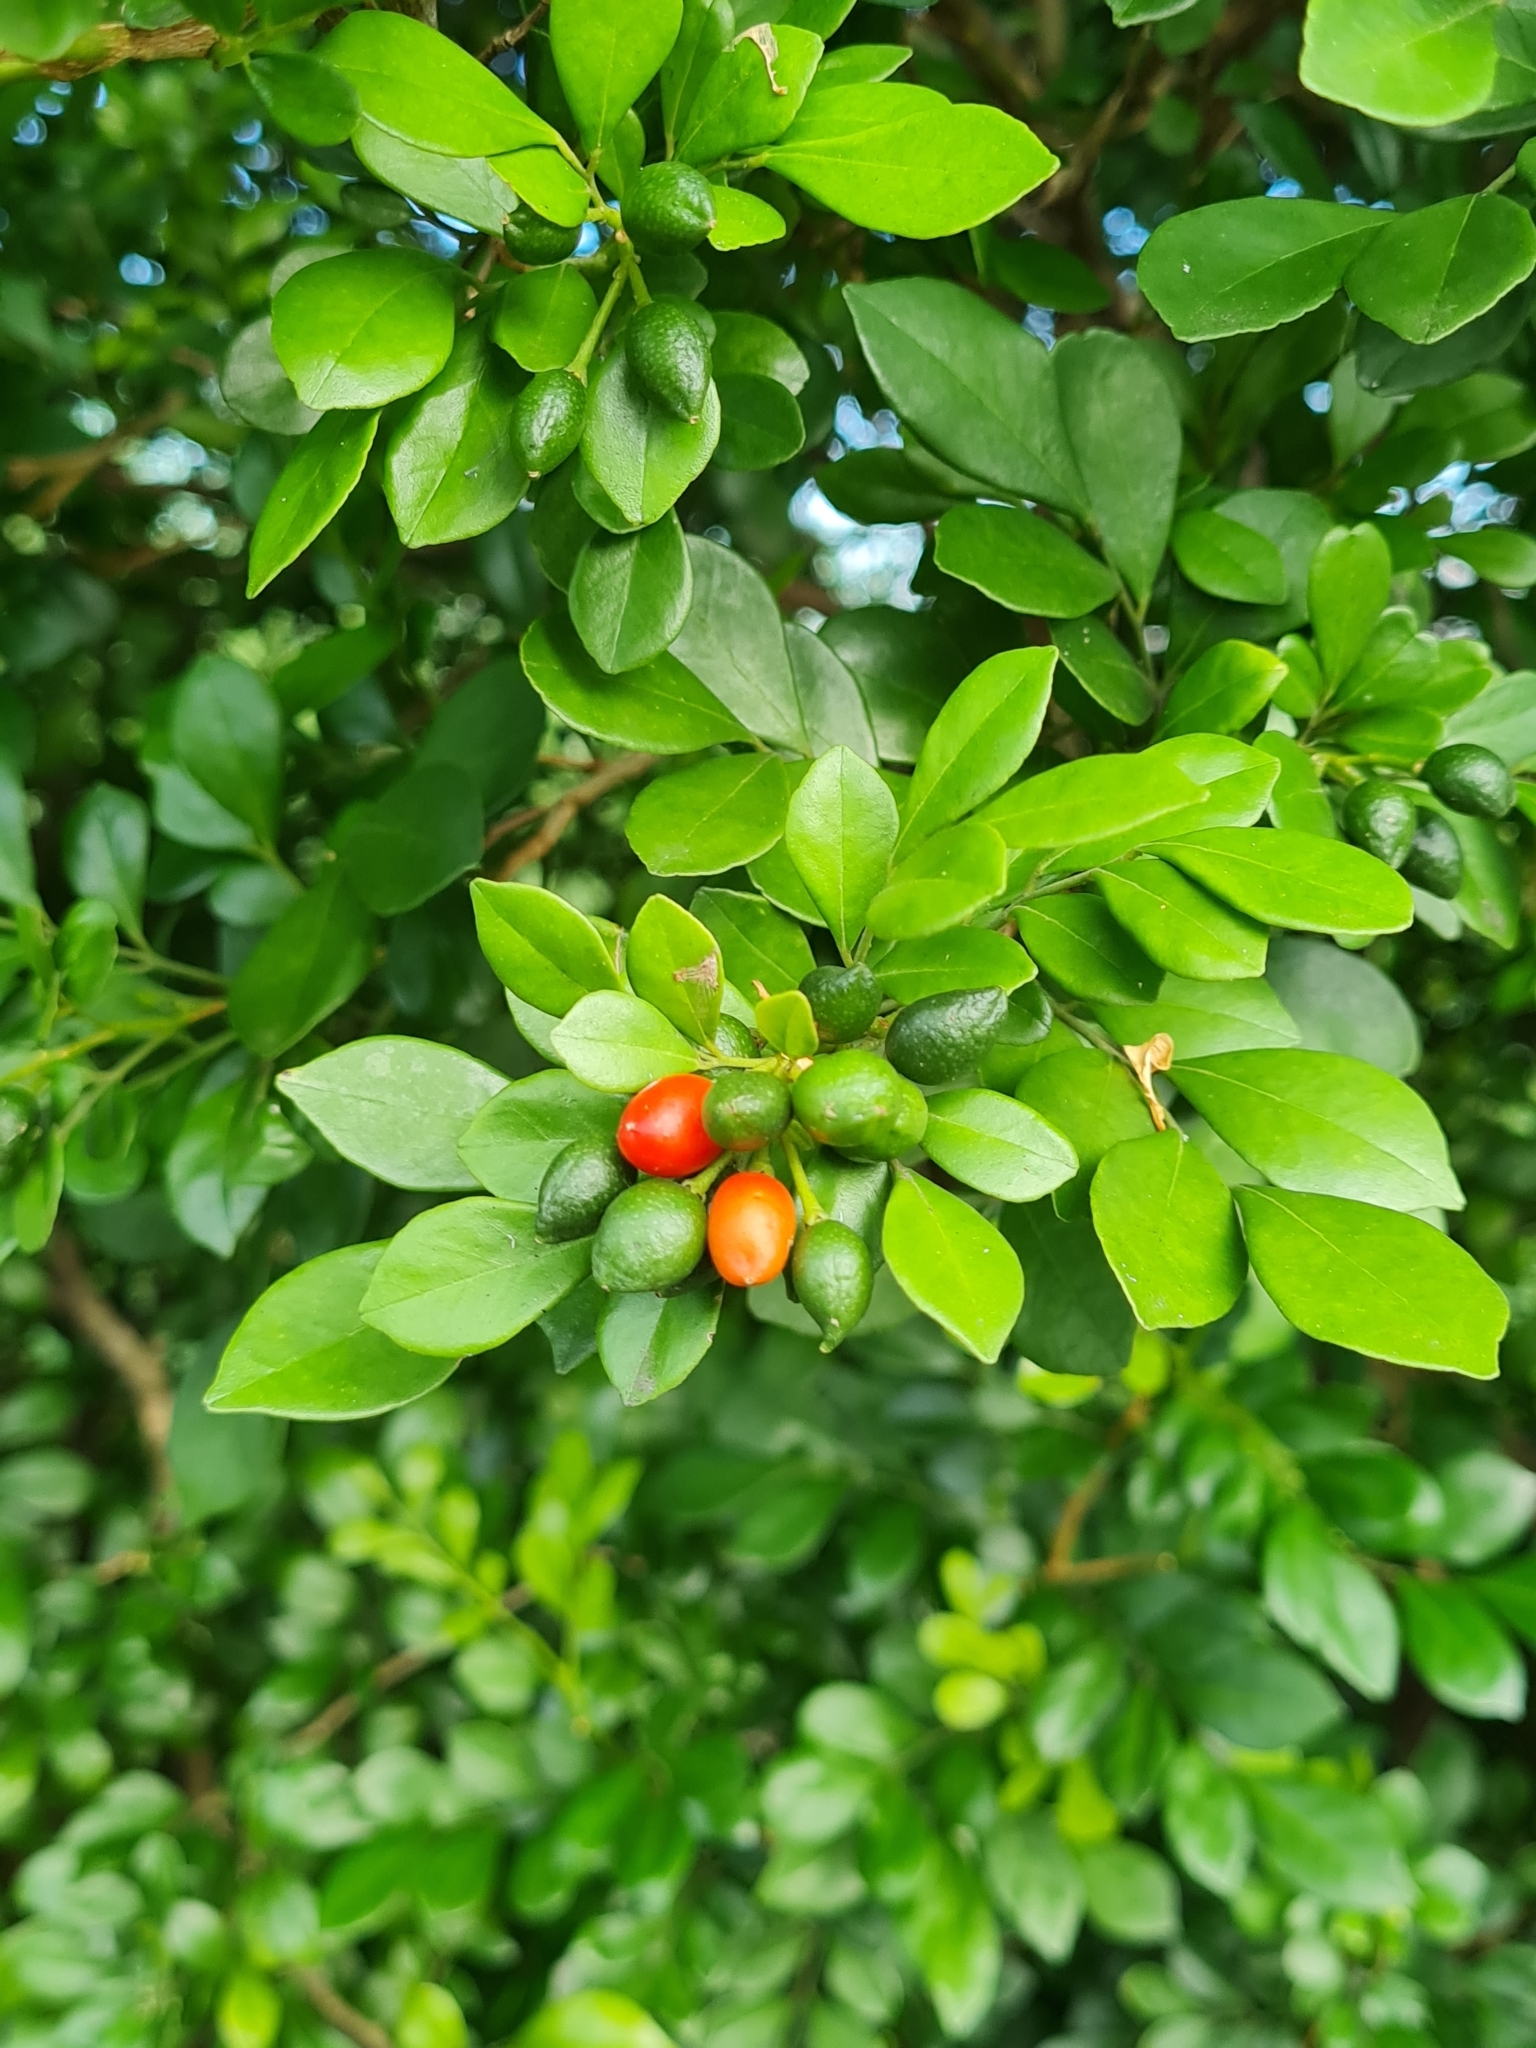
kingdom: Plantae
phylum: Tracheophyta
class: Magnoliopsida
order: Sapindales
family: Rutaceae
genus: Murraya
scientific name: Murraya paniculata
